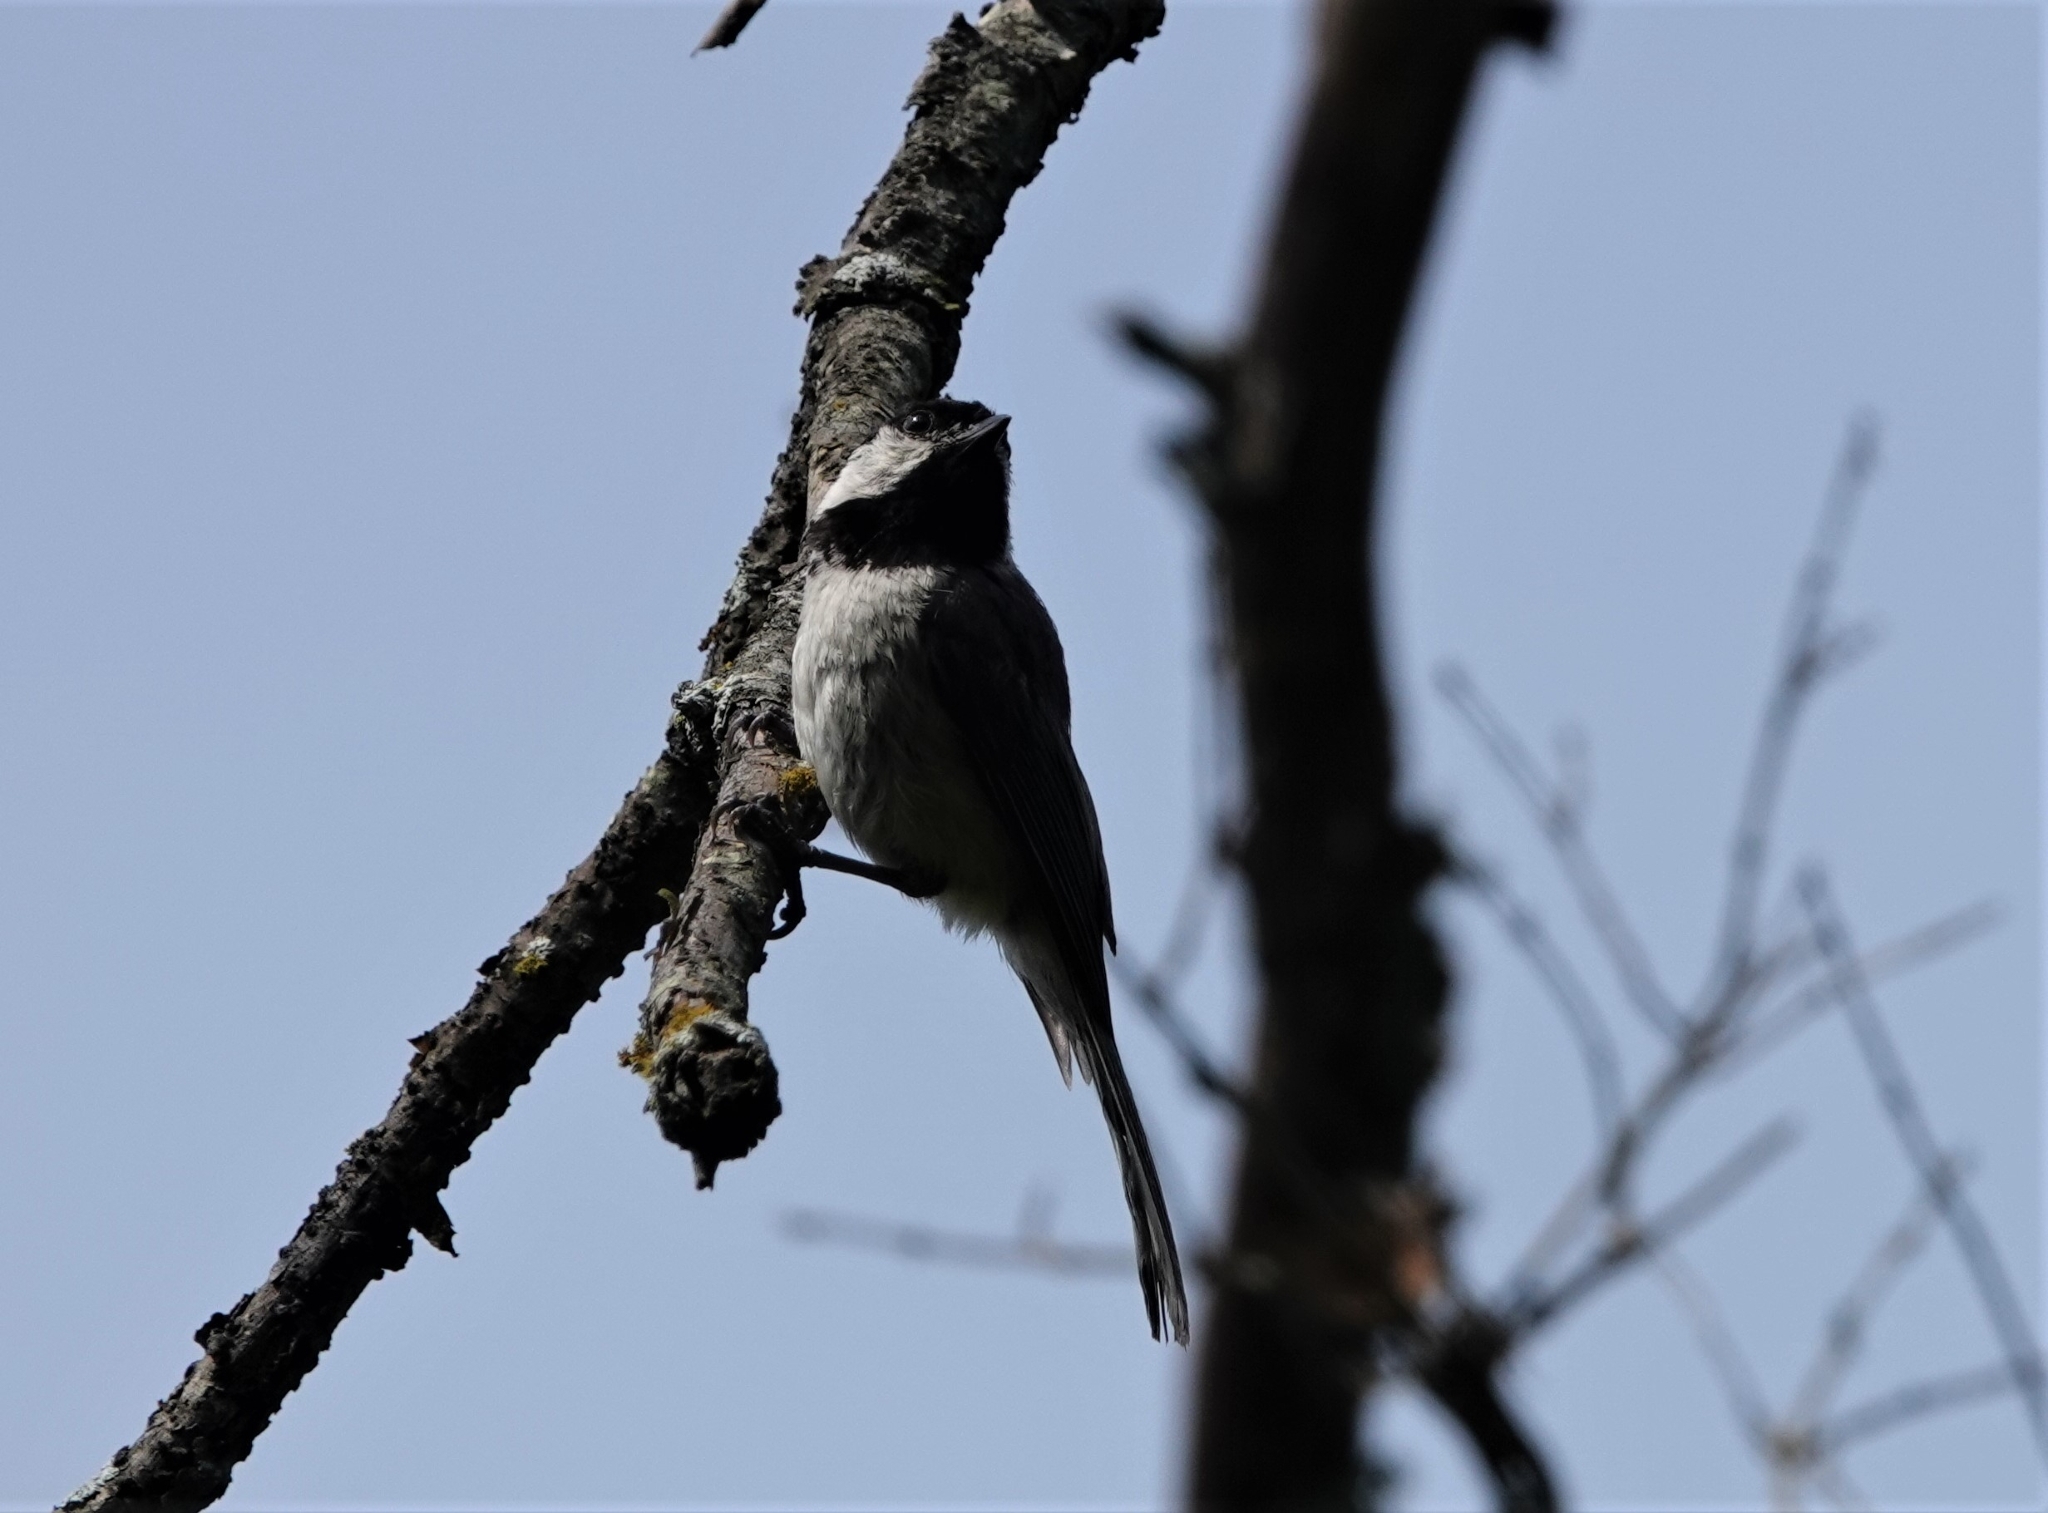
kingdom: Animalia
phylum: Chordata
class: Aves
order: Passeriformes
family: Paridae
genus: Poecile
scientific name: Poecile carolinensis
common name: Carolina chickadee
